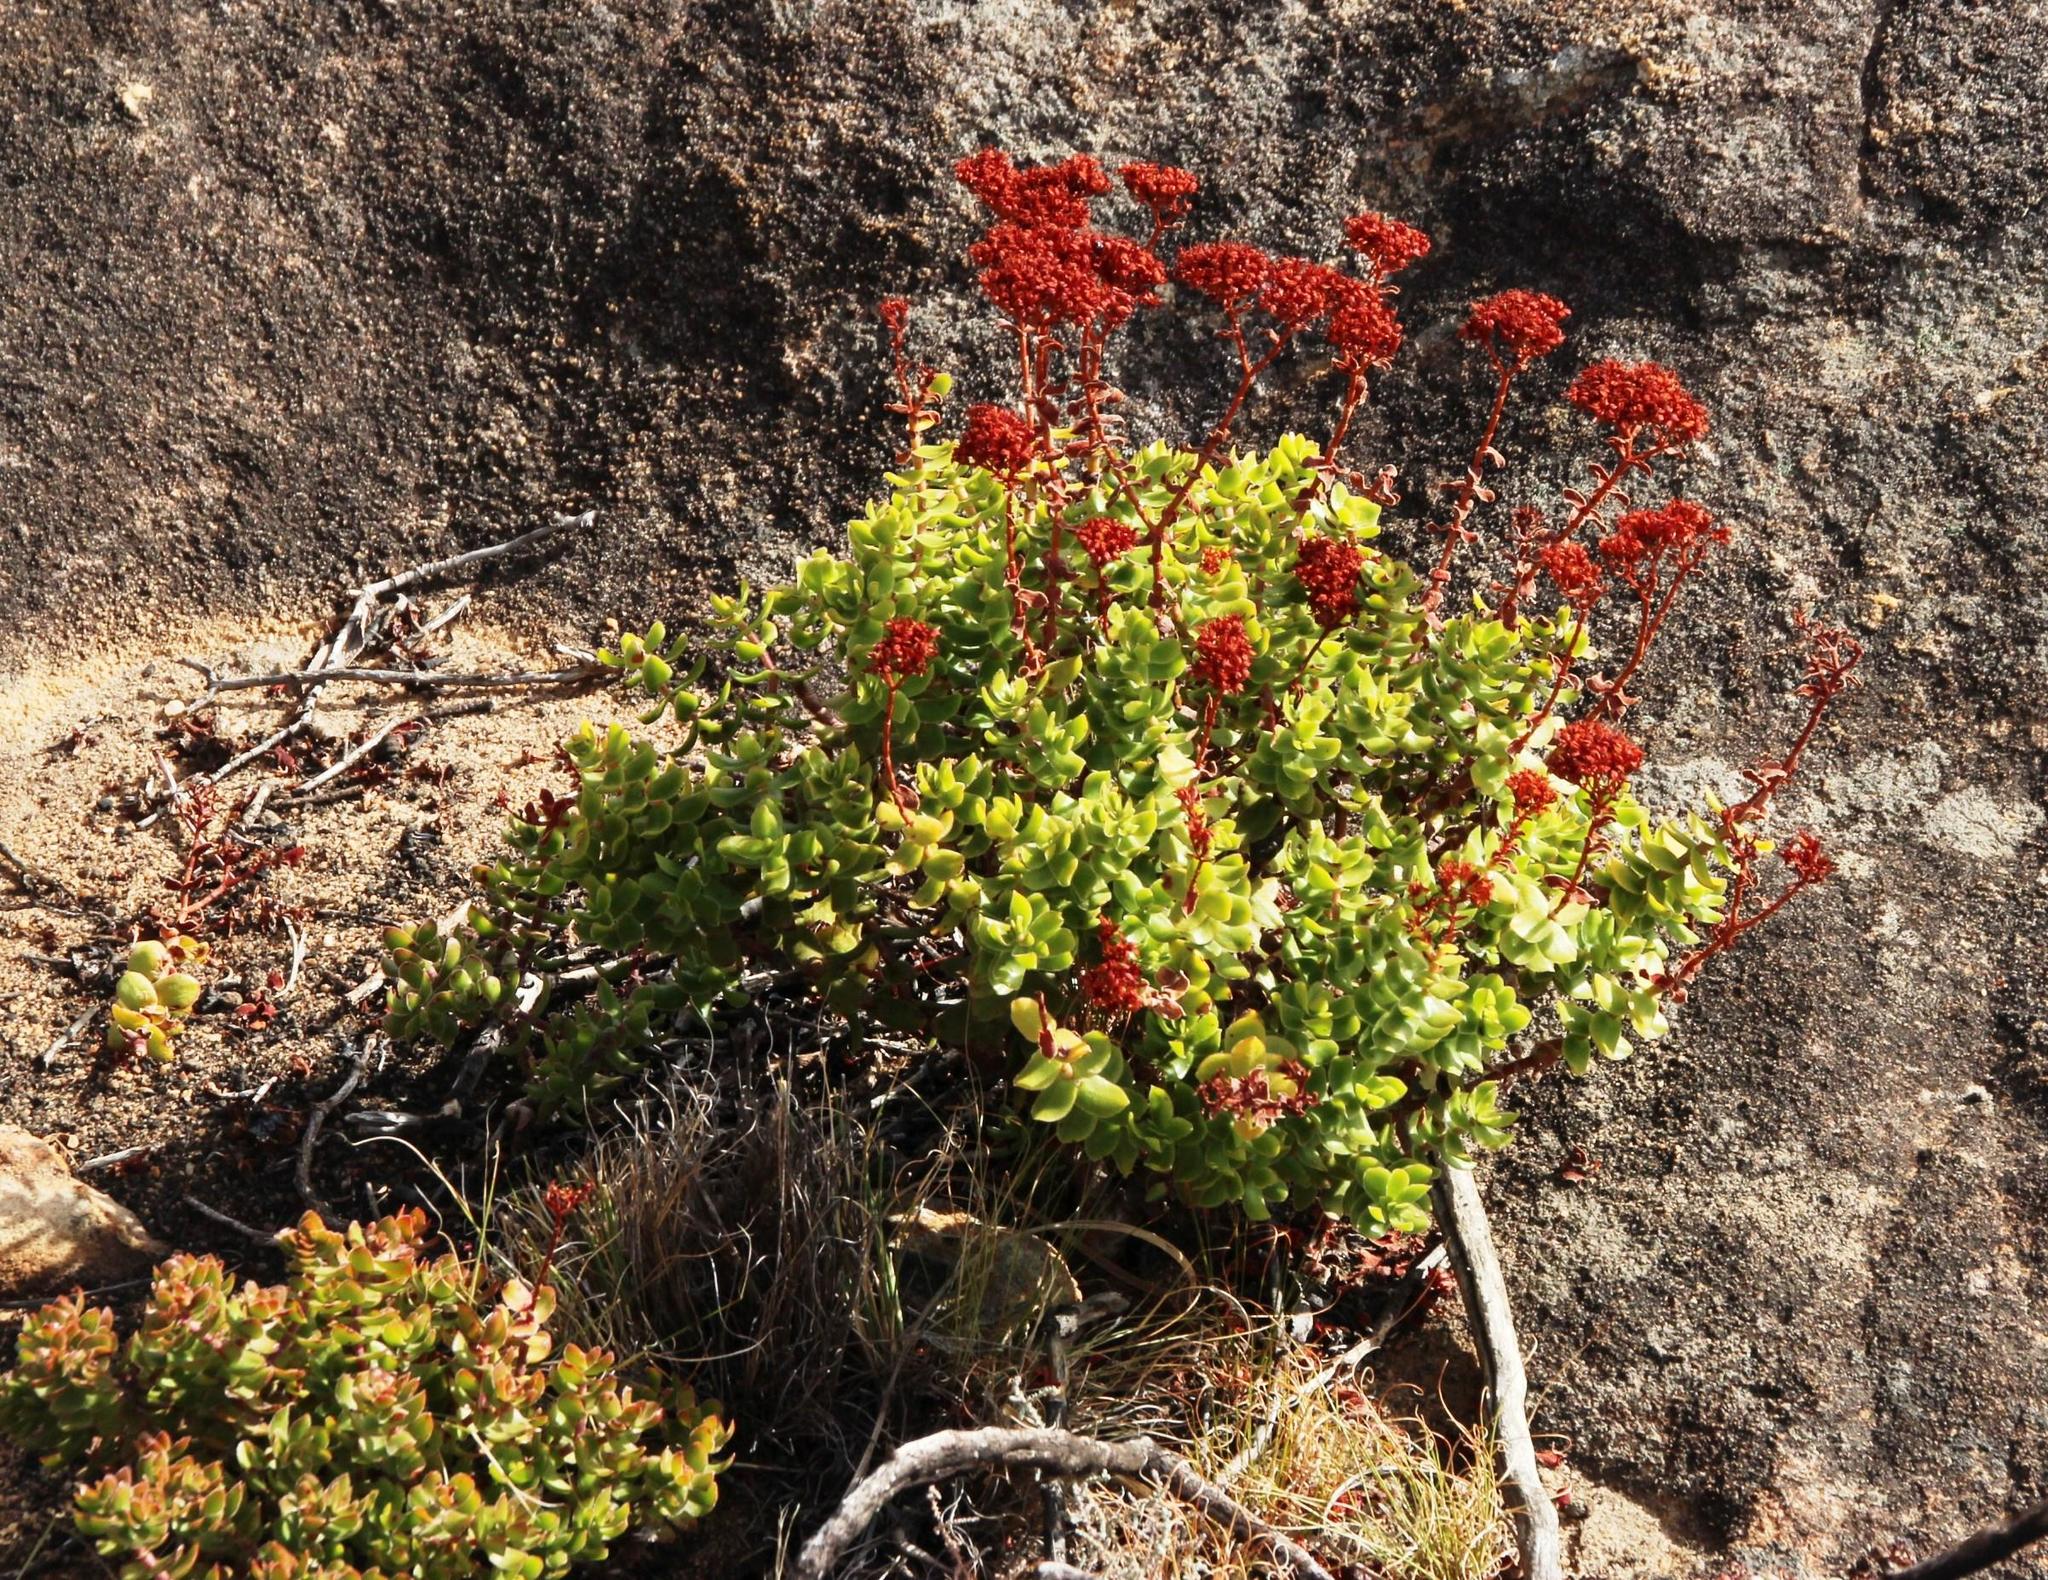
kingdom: Plantae
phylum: Tracheophyta
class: Magnoliopsida
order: Saxifragales
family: Crassulaceae
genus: Crassula
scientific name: Crassula undulata
